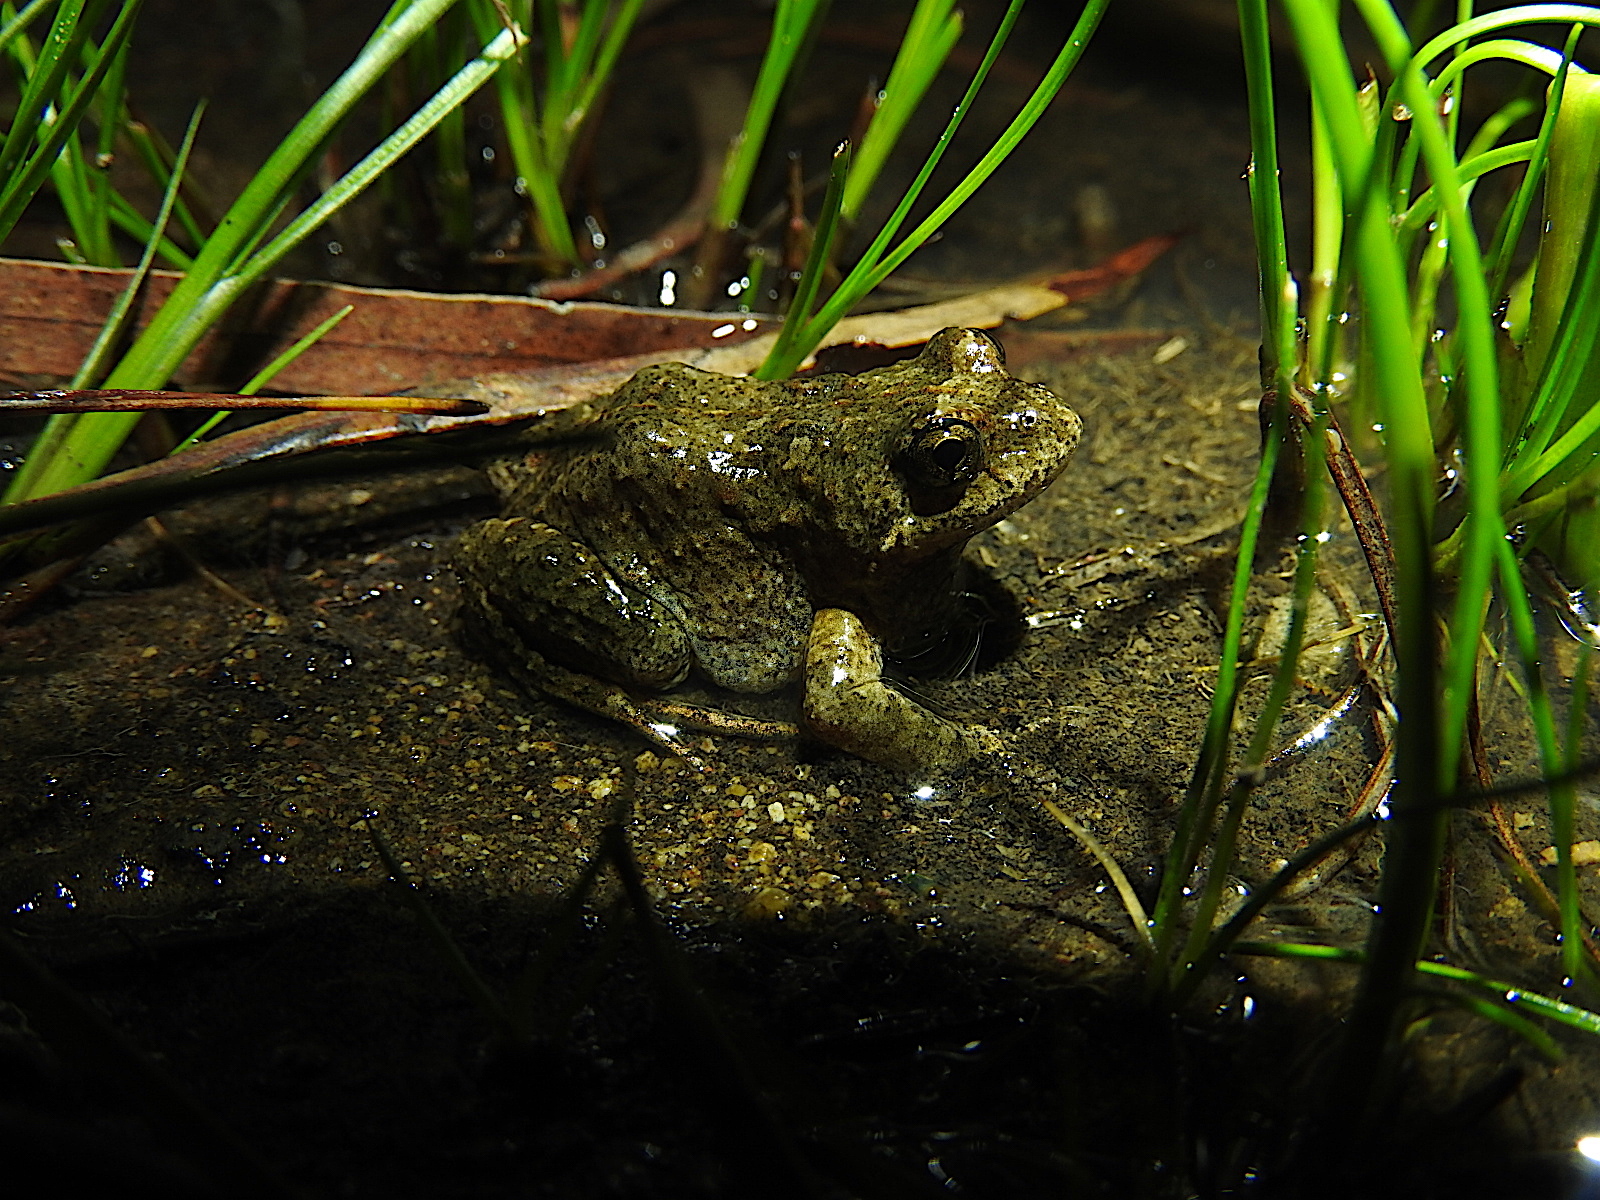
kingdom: Animalia
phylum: Chordata
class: Amphibia
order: Anura
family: Myobatrachidae
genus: Crinia
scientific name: Crinia signifera
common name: Brown froglet
